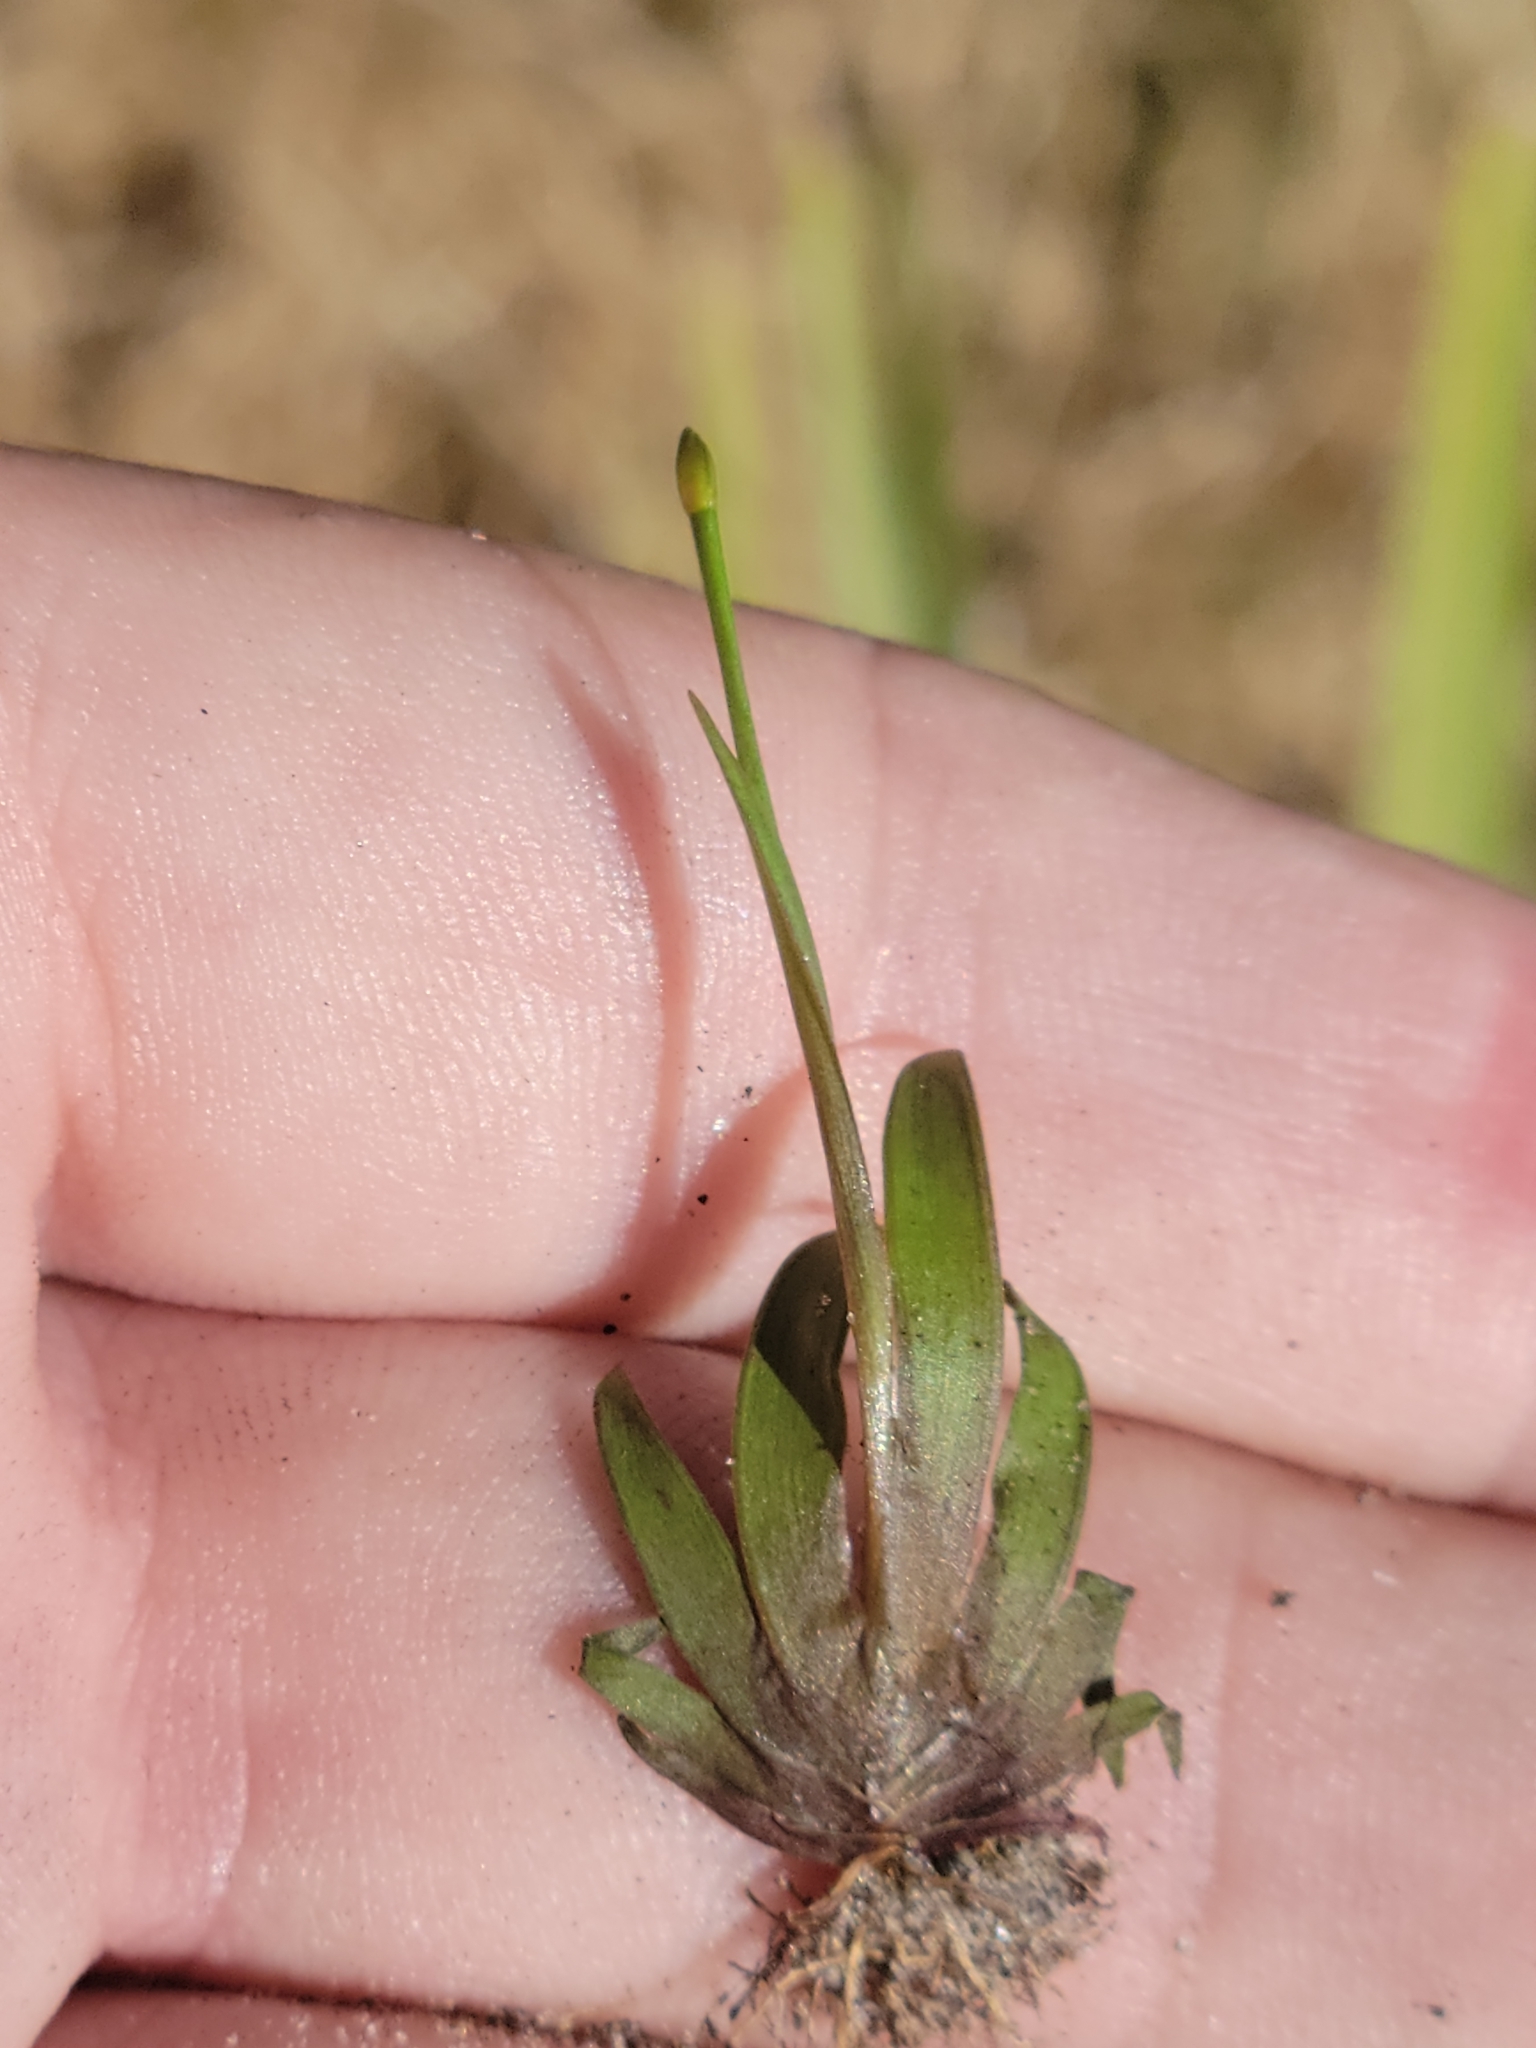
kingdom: Plantae
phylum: Tracheophyta
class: Liliopsida
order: Poales
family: Xyridaceae
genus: Xyris
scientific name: Xyris flabelliformis
